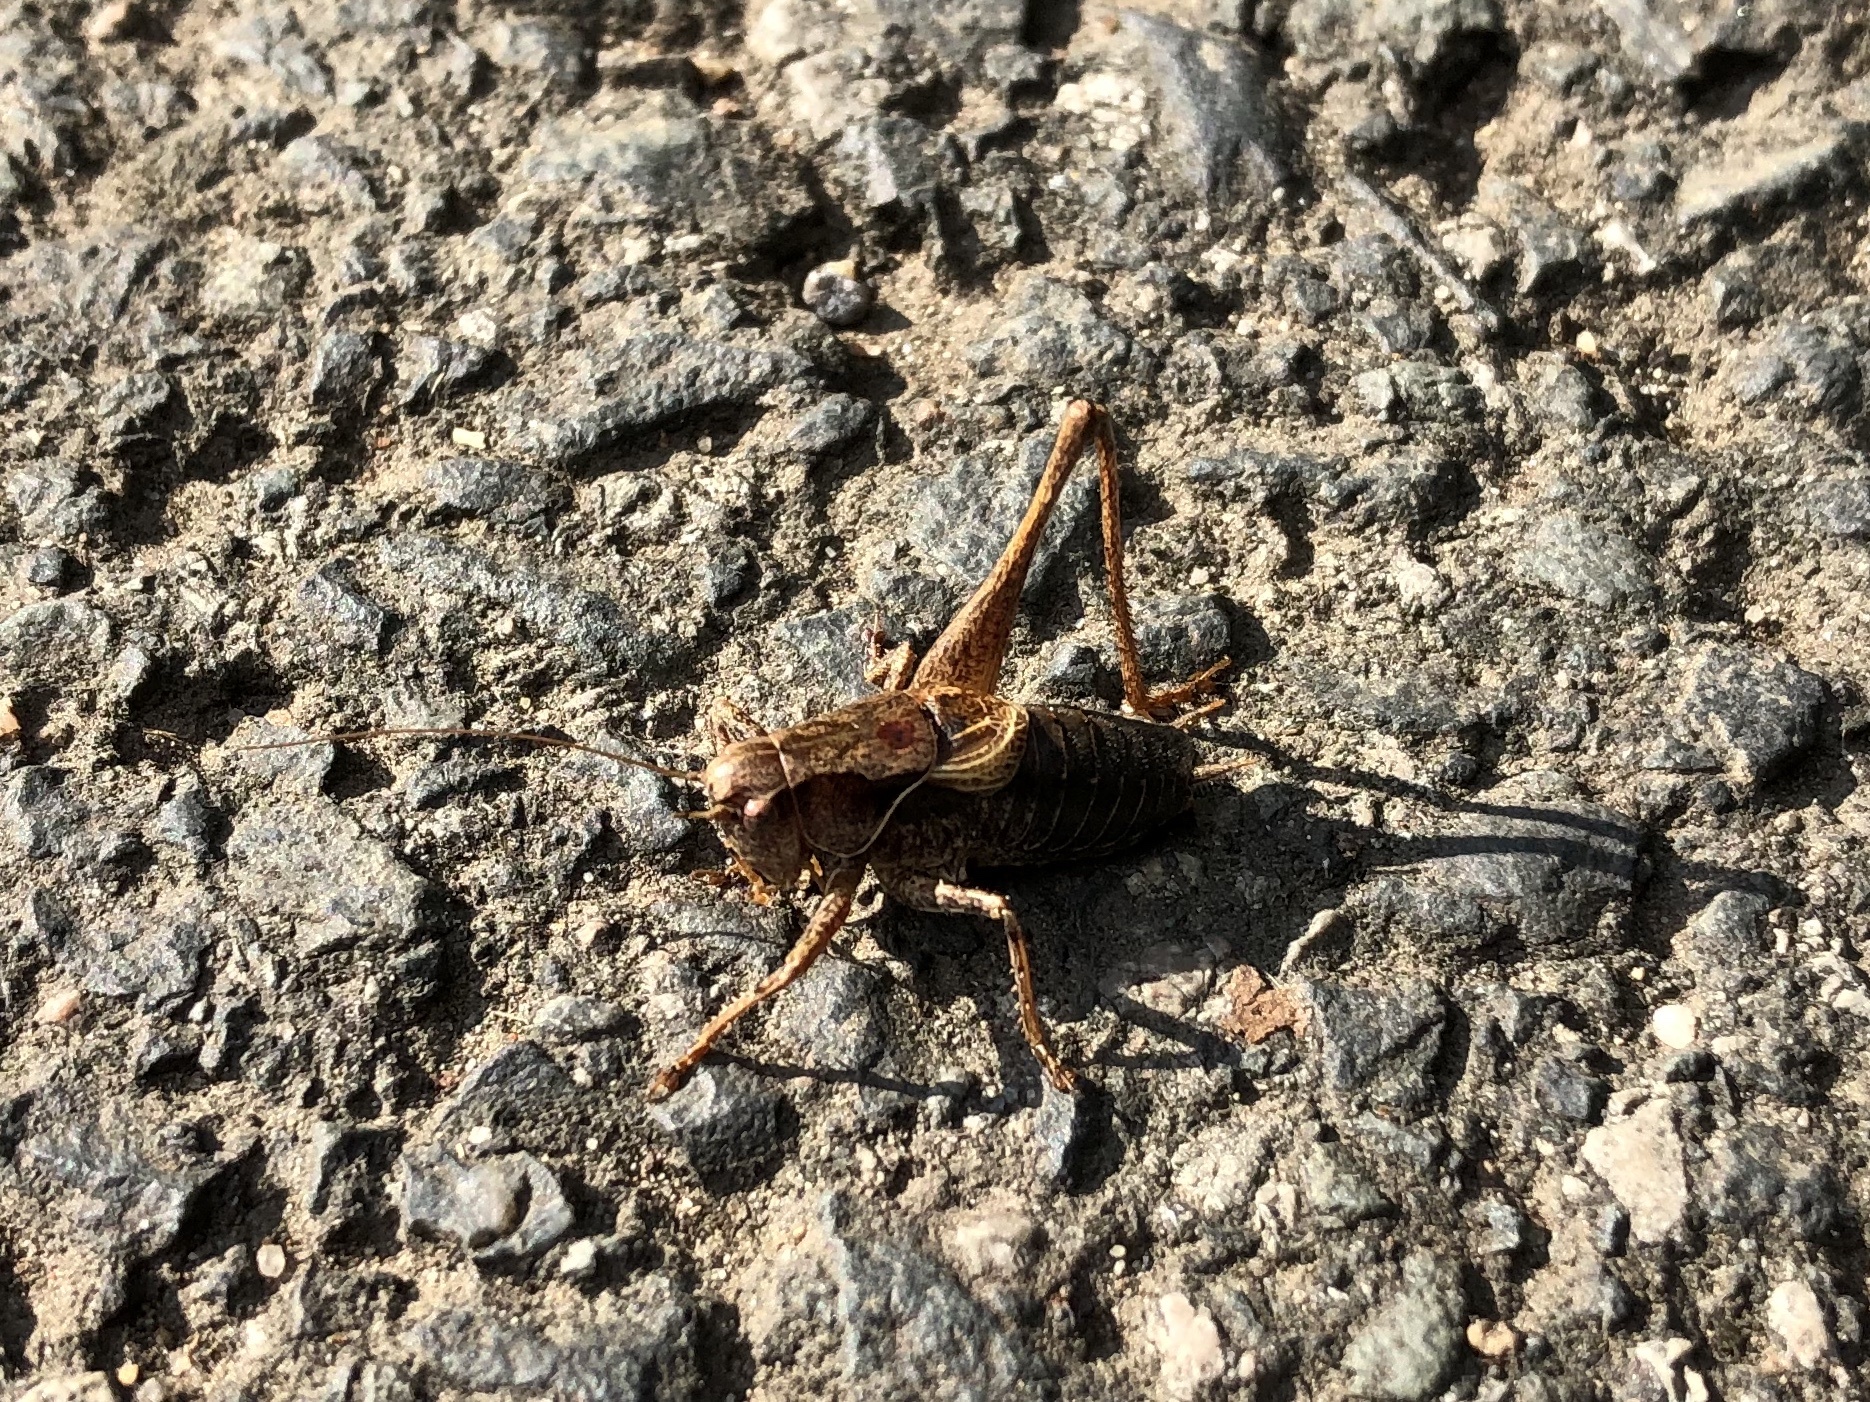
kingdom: Animalia
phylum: Arthropoda
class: Insecta
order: Orthoptera
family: Tettigoniidae
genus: Pholidoptera
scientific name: Pholidoptera griseoaptera
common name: Dark bush-cricket
